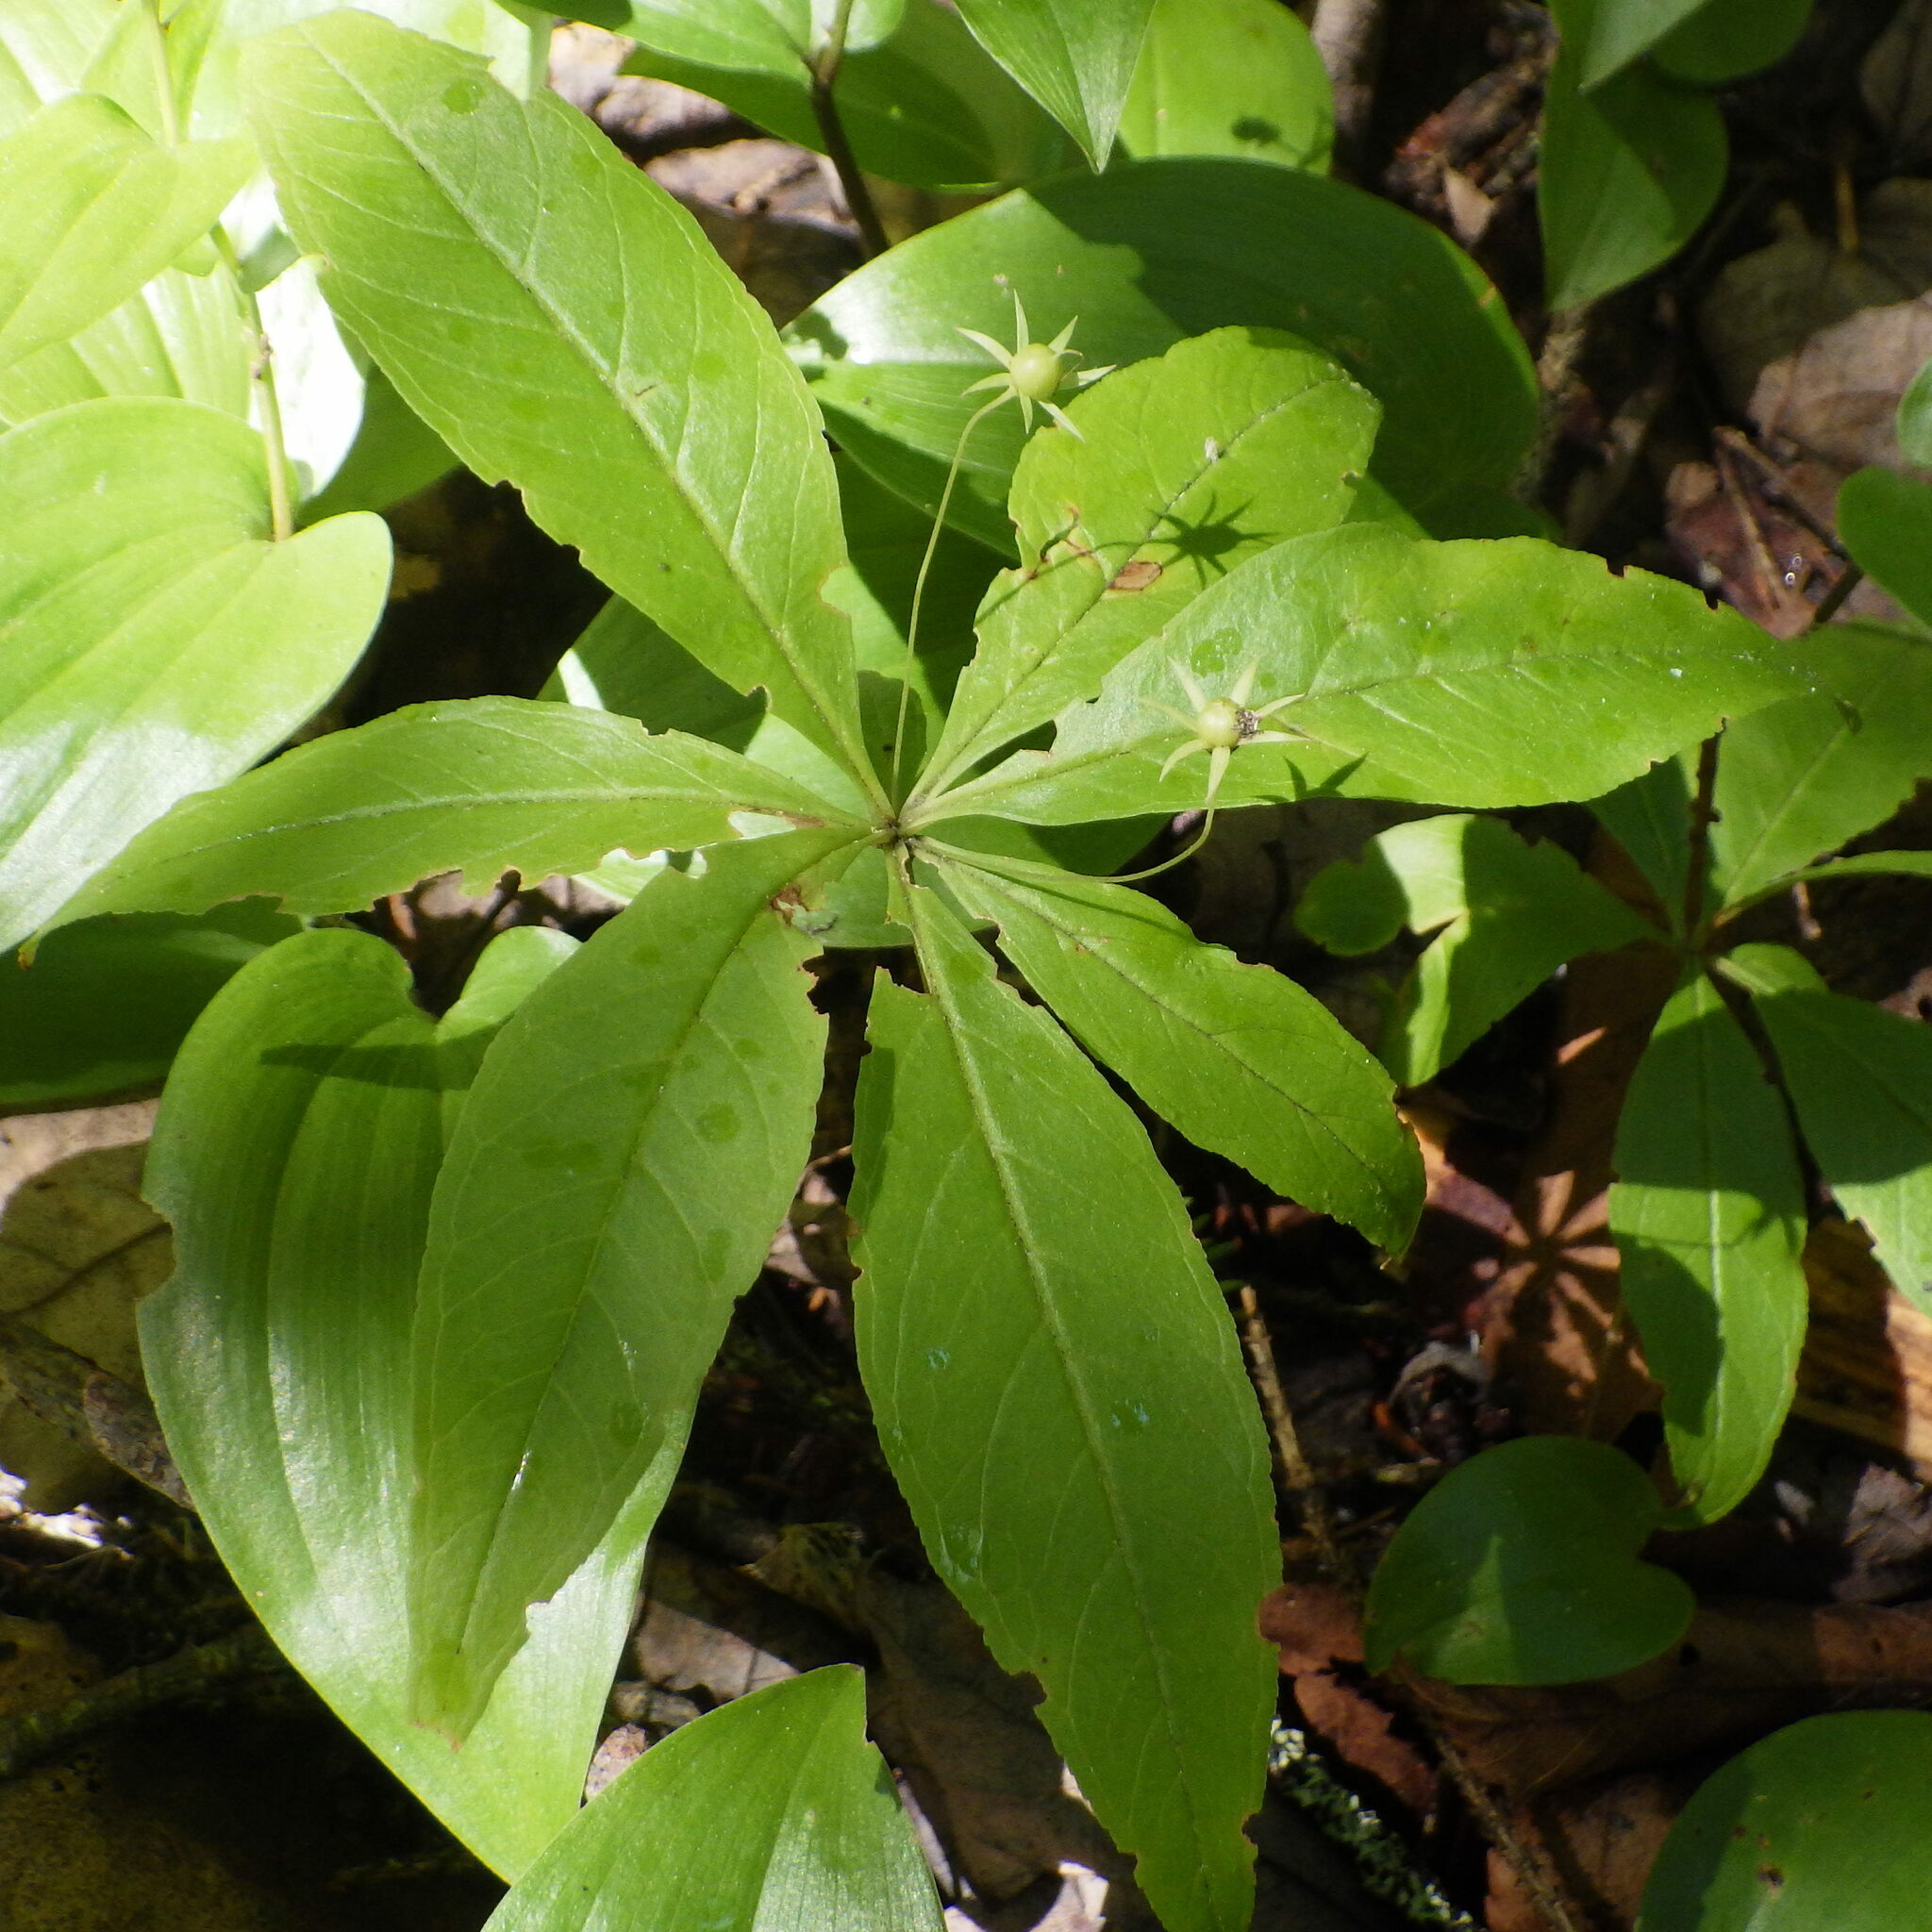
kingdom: Plantae
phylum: Tracheophyta
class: Magnoliopsida
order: Ericales
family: Primulaceae
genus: Lysimachia
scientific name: Lysimachia borealis
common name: American starflower
